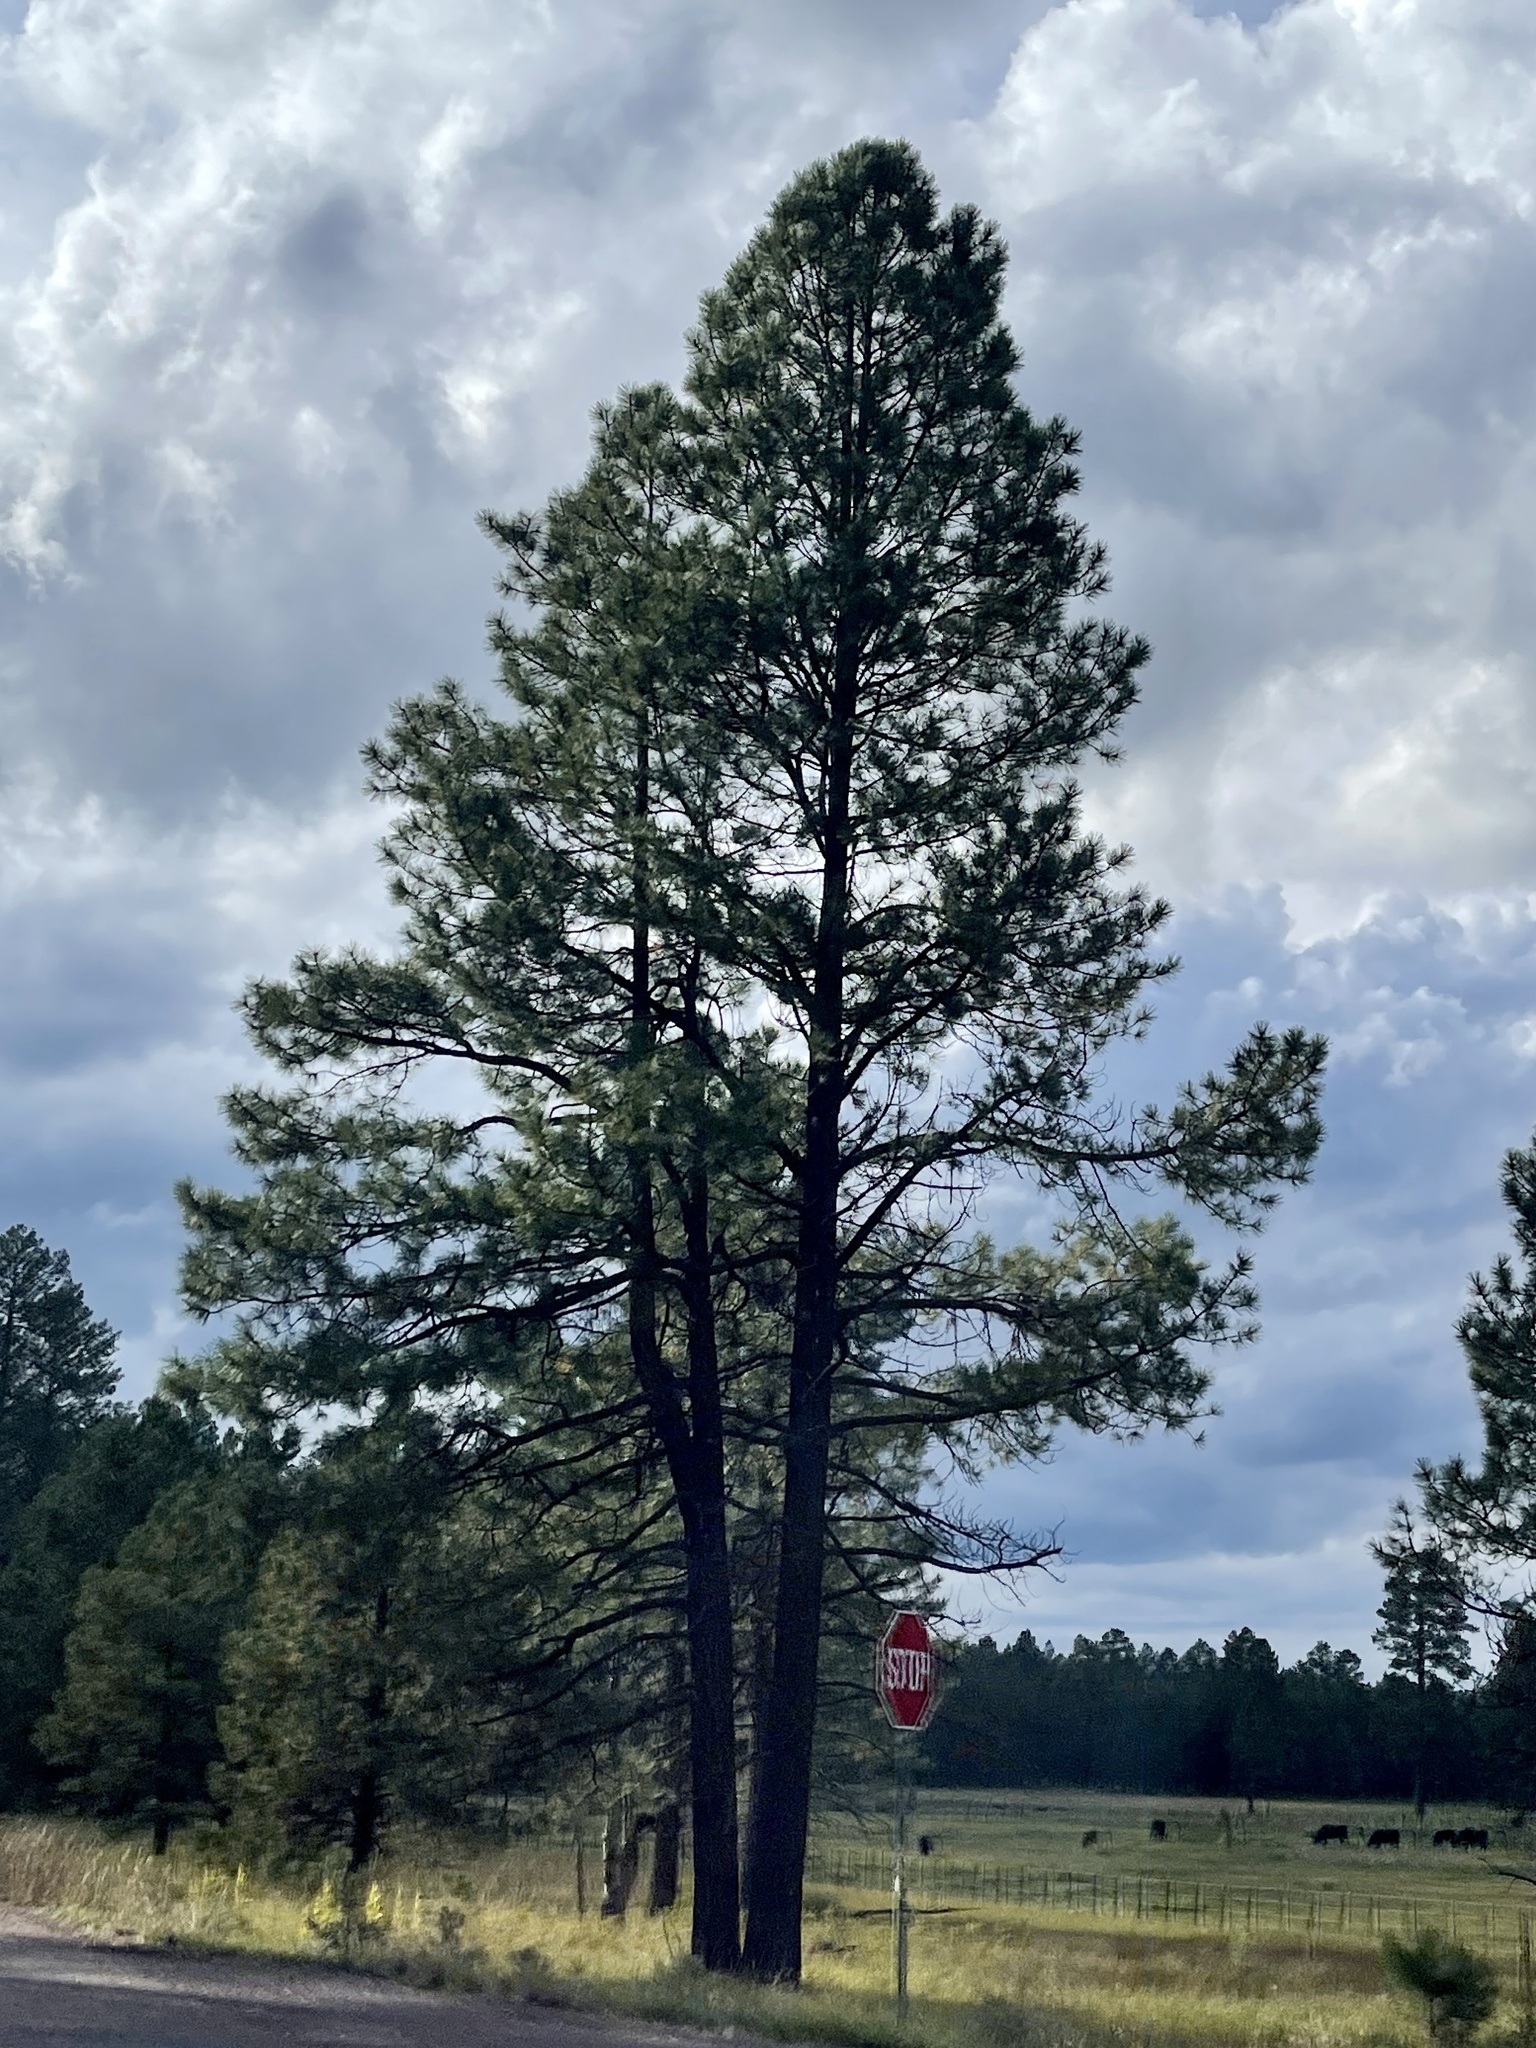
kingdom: Plantae
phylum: Tracheophyta
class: Pinopsida
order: Pinales
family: Pinaceae
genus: Pinus
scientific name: Pinus ponderosa
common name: Western yellow-pine
